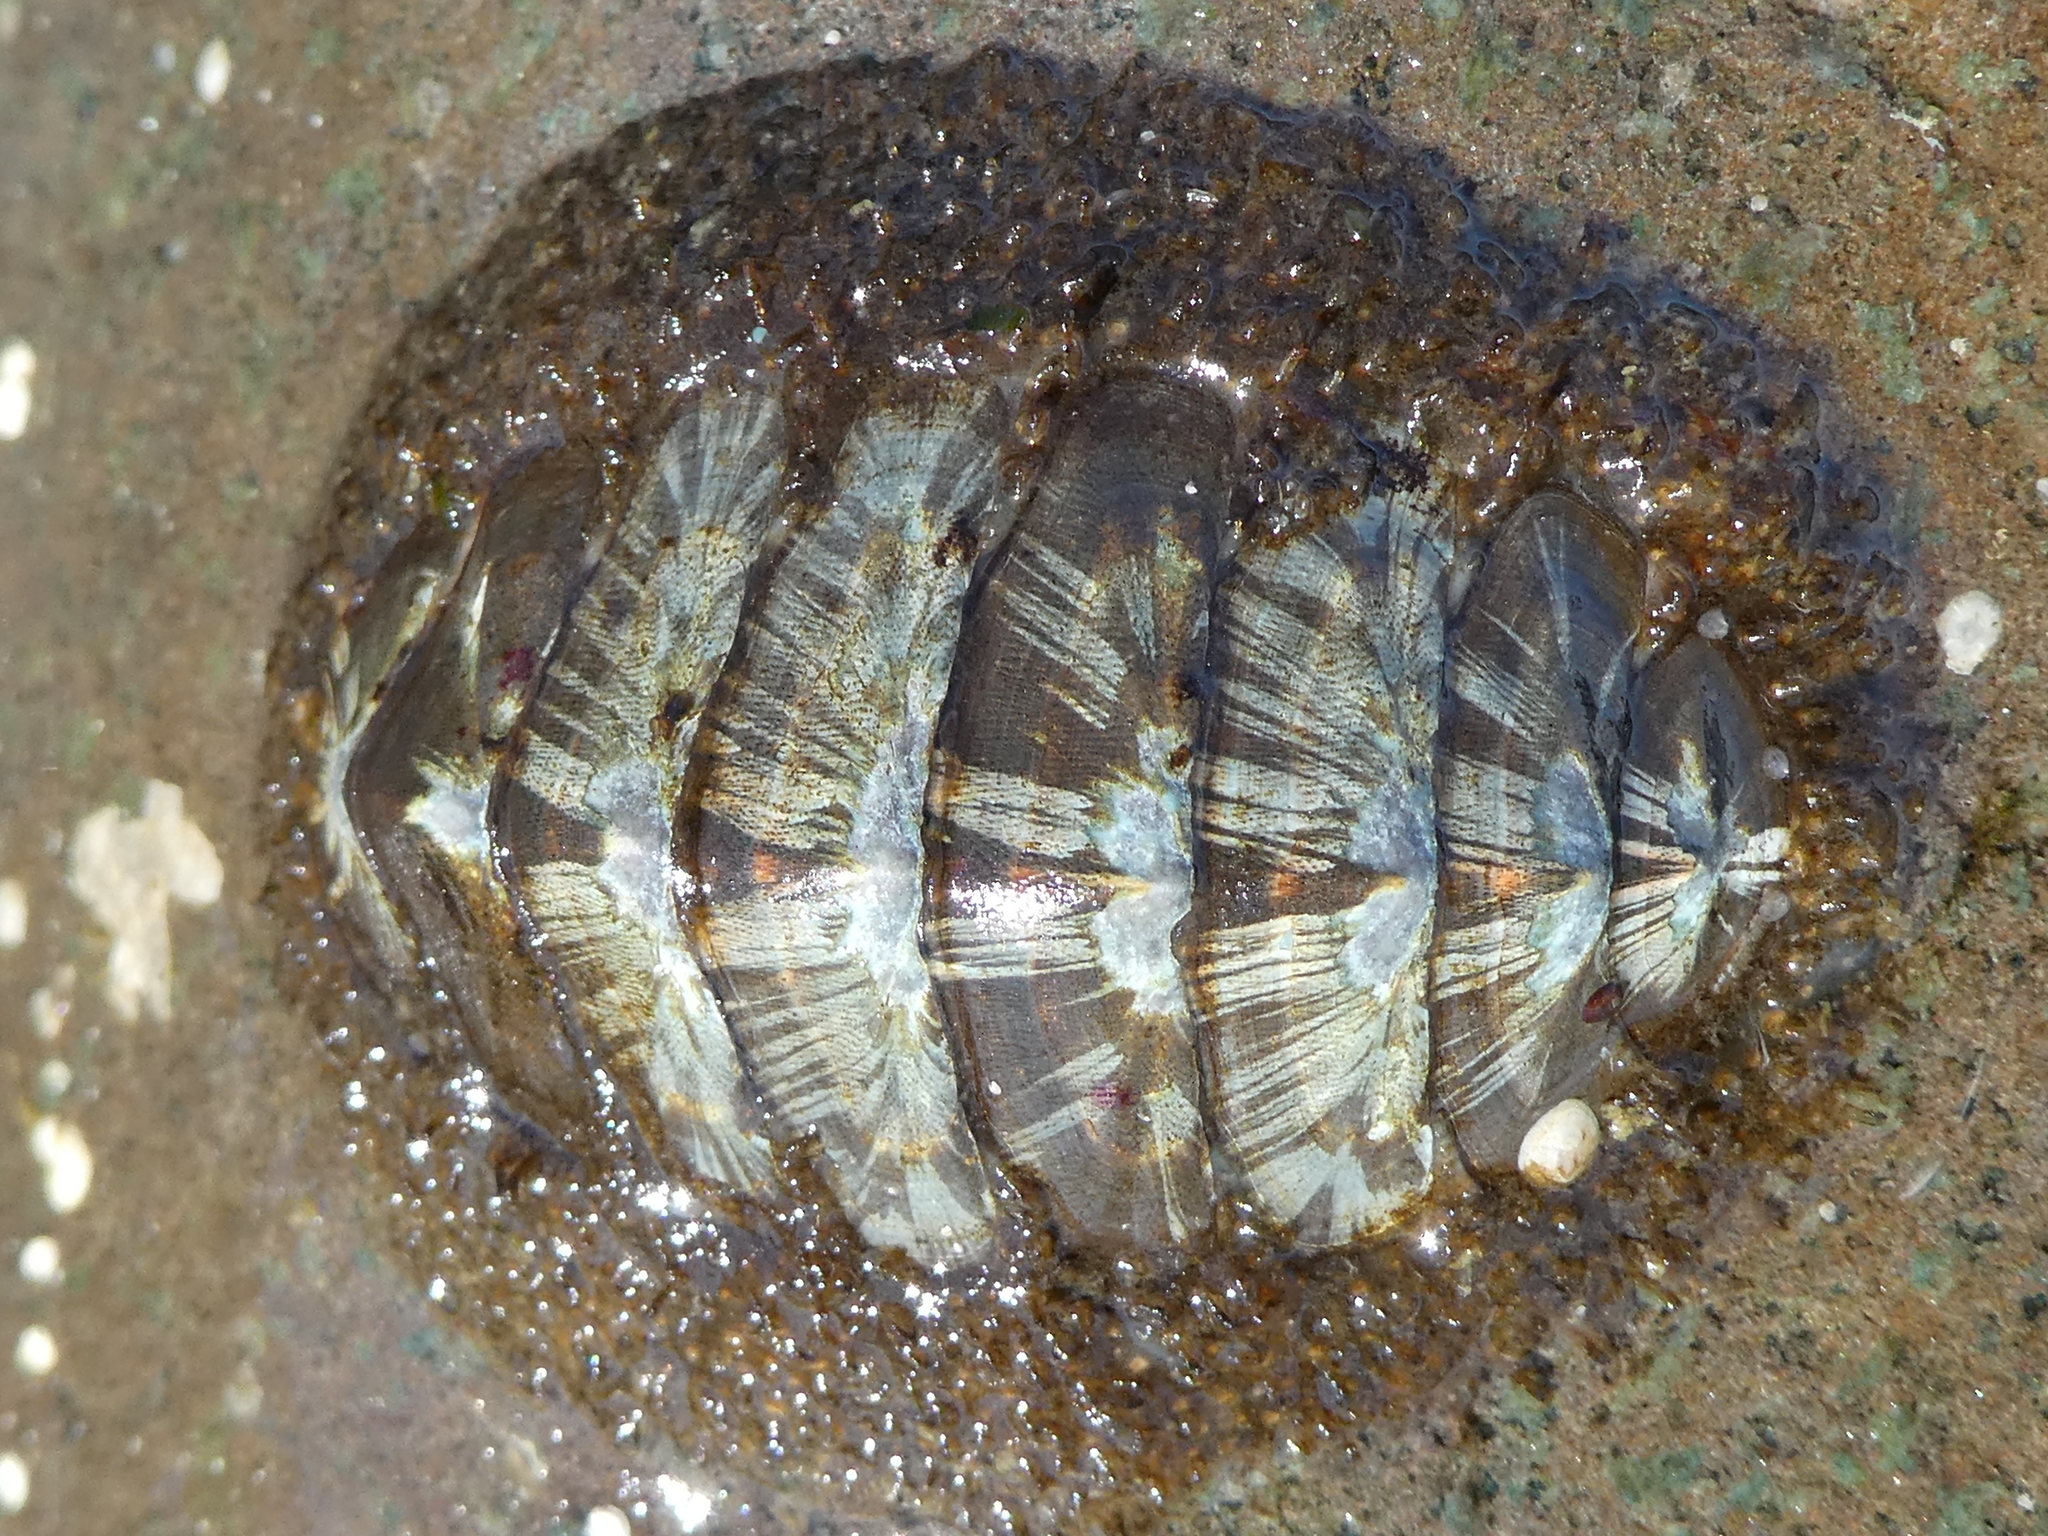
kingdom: Animalia
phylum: Mollusca
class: Polyplacophora
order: Chitonida
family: Mopaliidae
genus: Mopalia
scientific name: Mopalia lignosa
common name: Woody chiton
